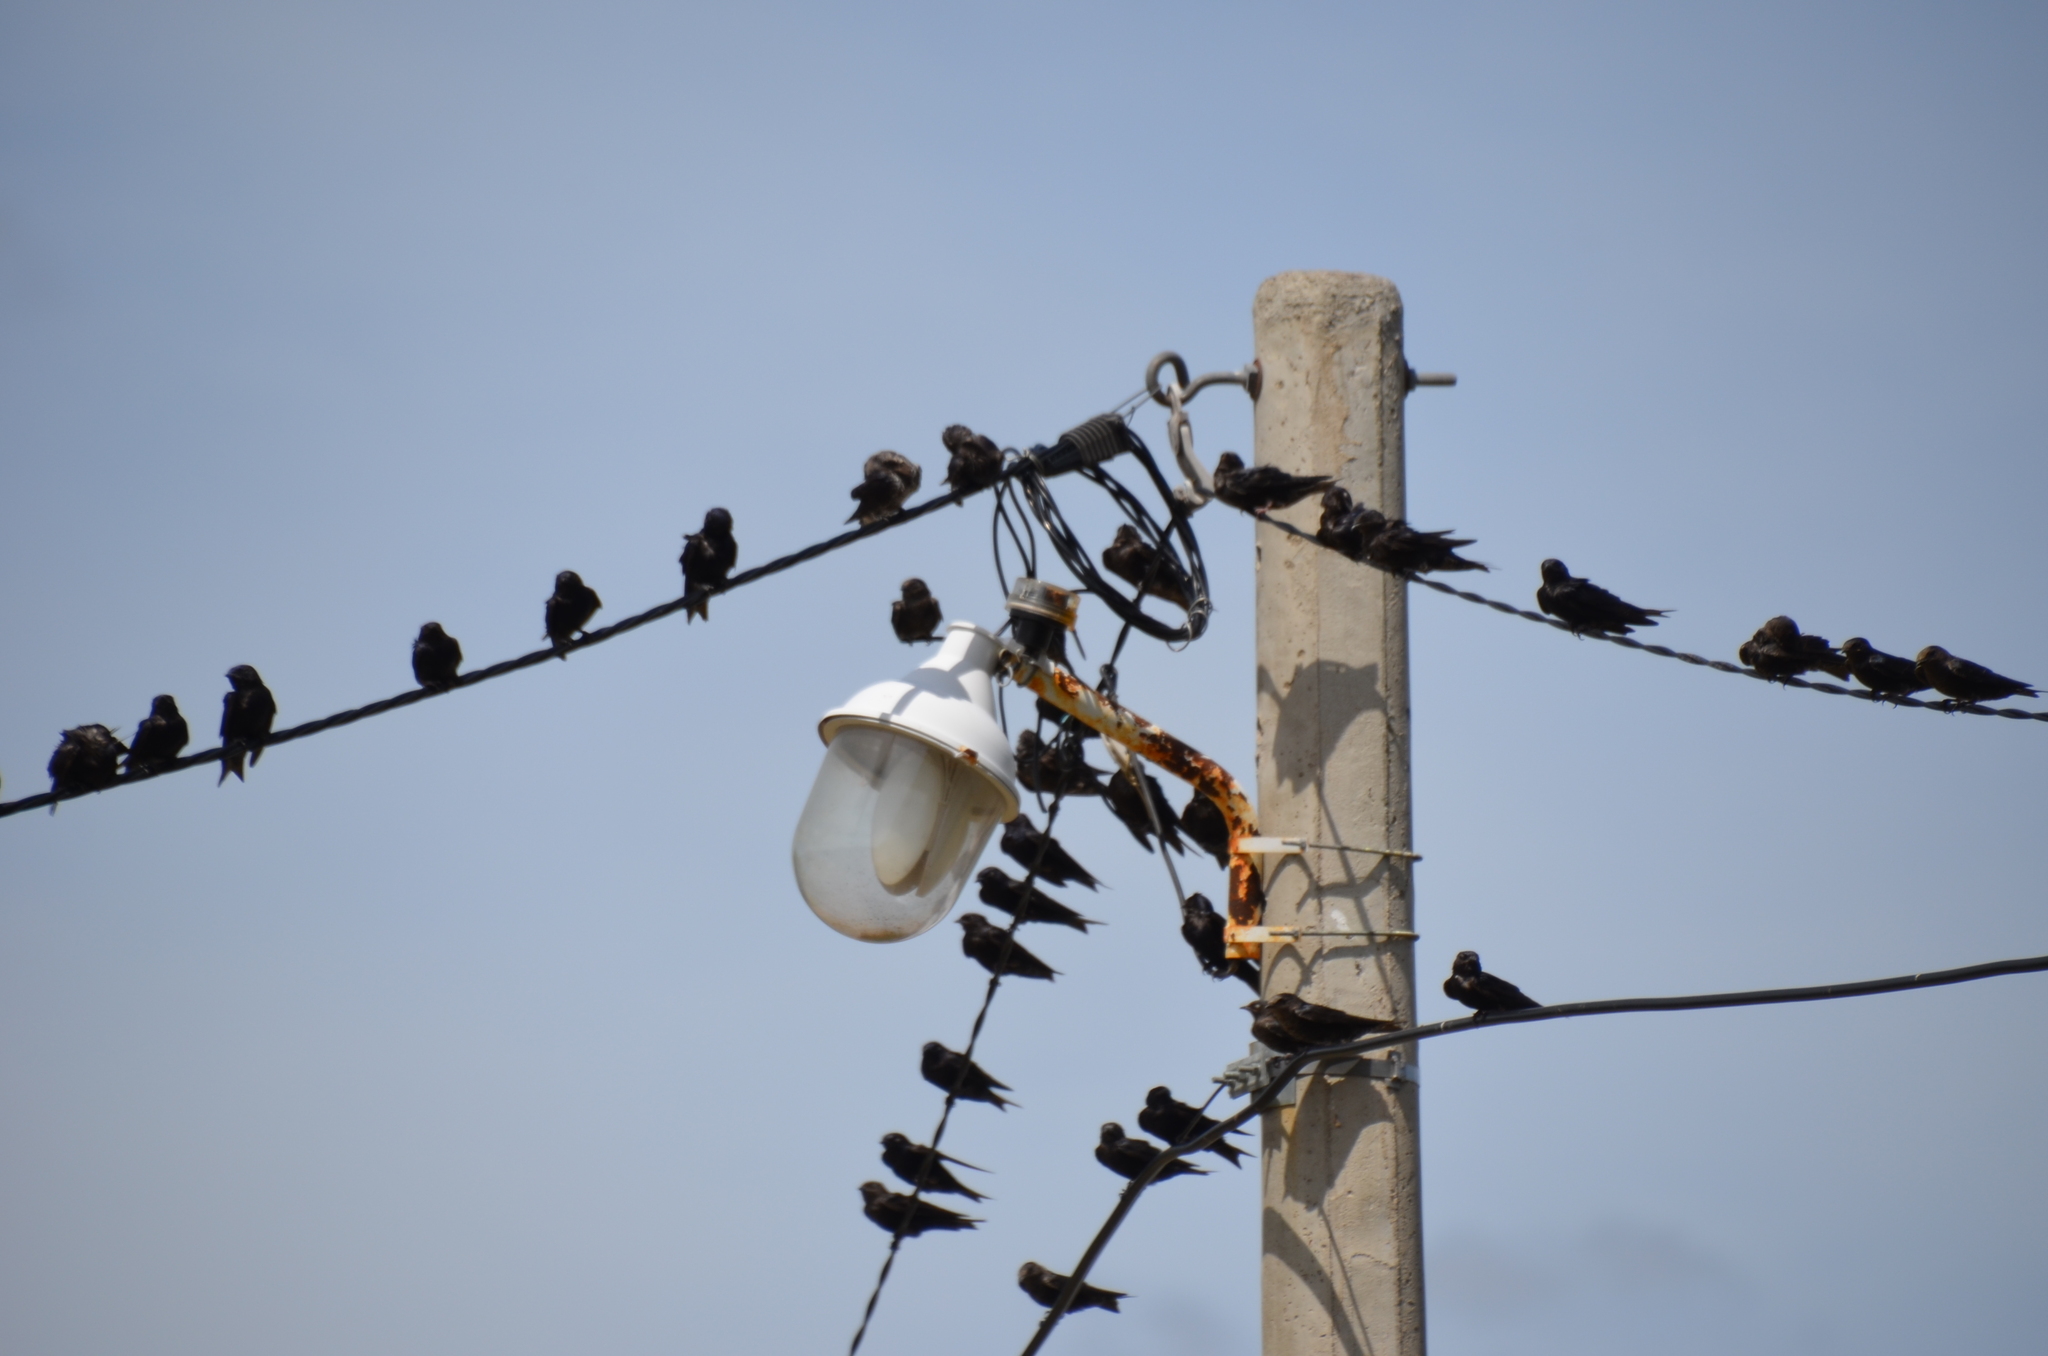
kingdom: Animalia
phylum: Chordata
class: Aves
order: Passeriformes
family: Hirundinidae
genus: Progne
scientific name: Progne elegans
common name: Southern martin
